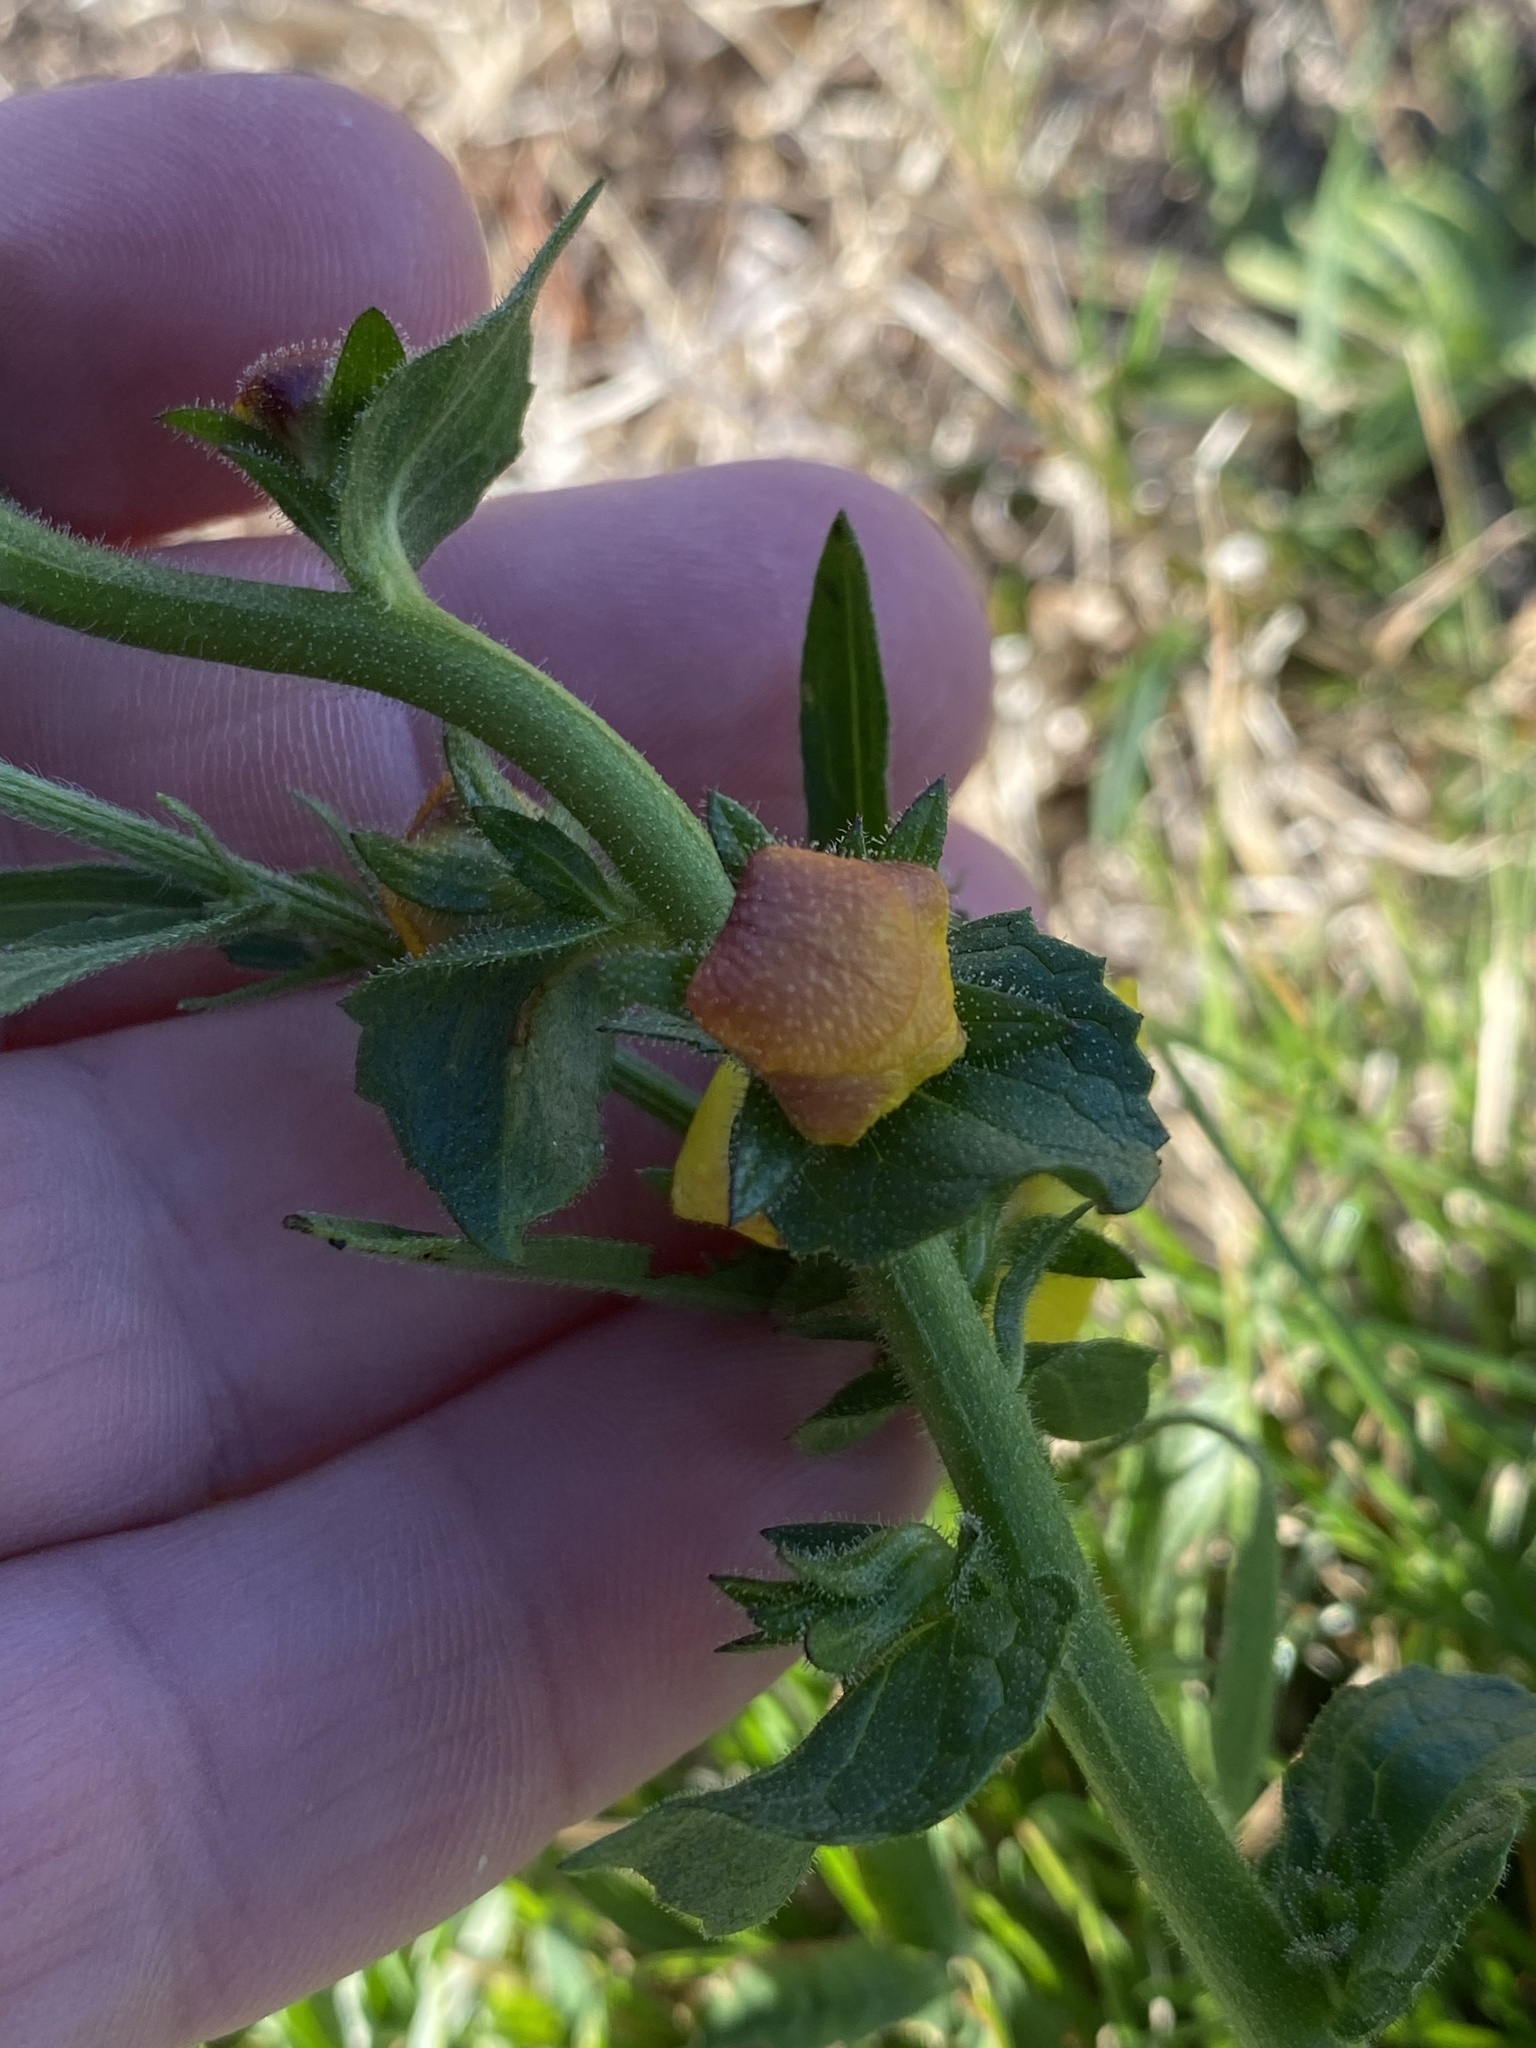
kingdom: Plantae
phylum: Tracheophyta
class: Magnoliopsida
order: Lamiales
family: Scrophulariaceae
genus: Verbascum
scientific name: Verbascum virgatum
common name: Twiggy mullein
